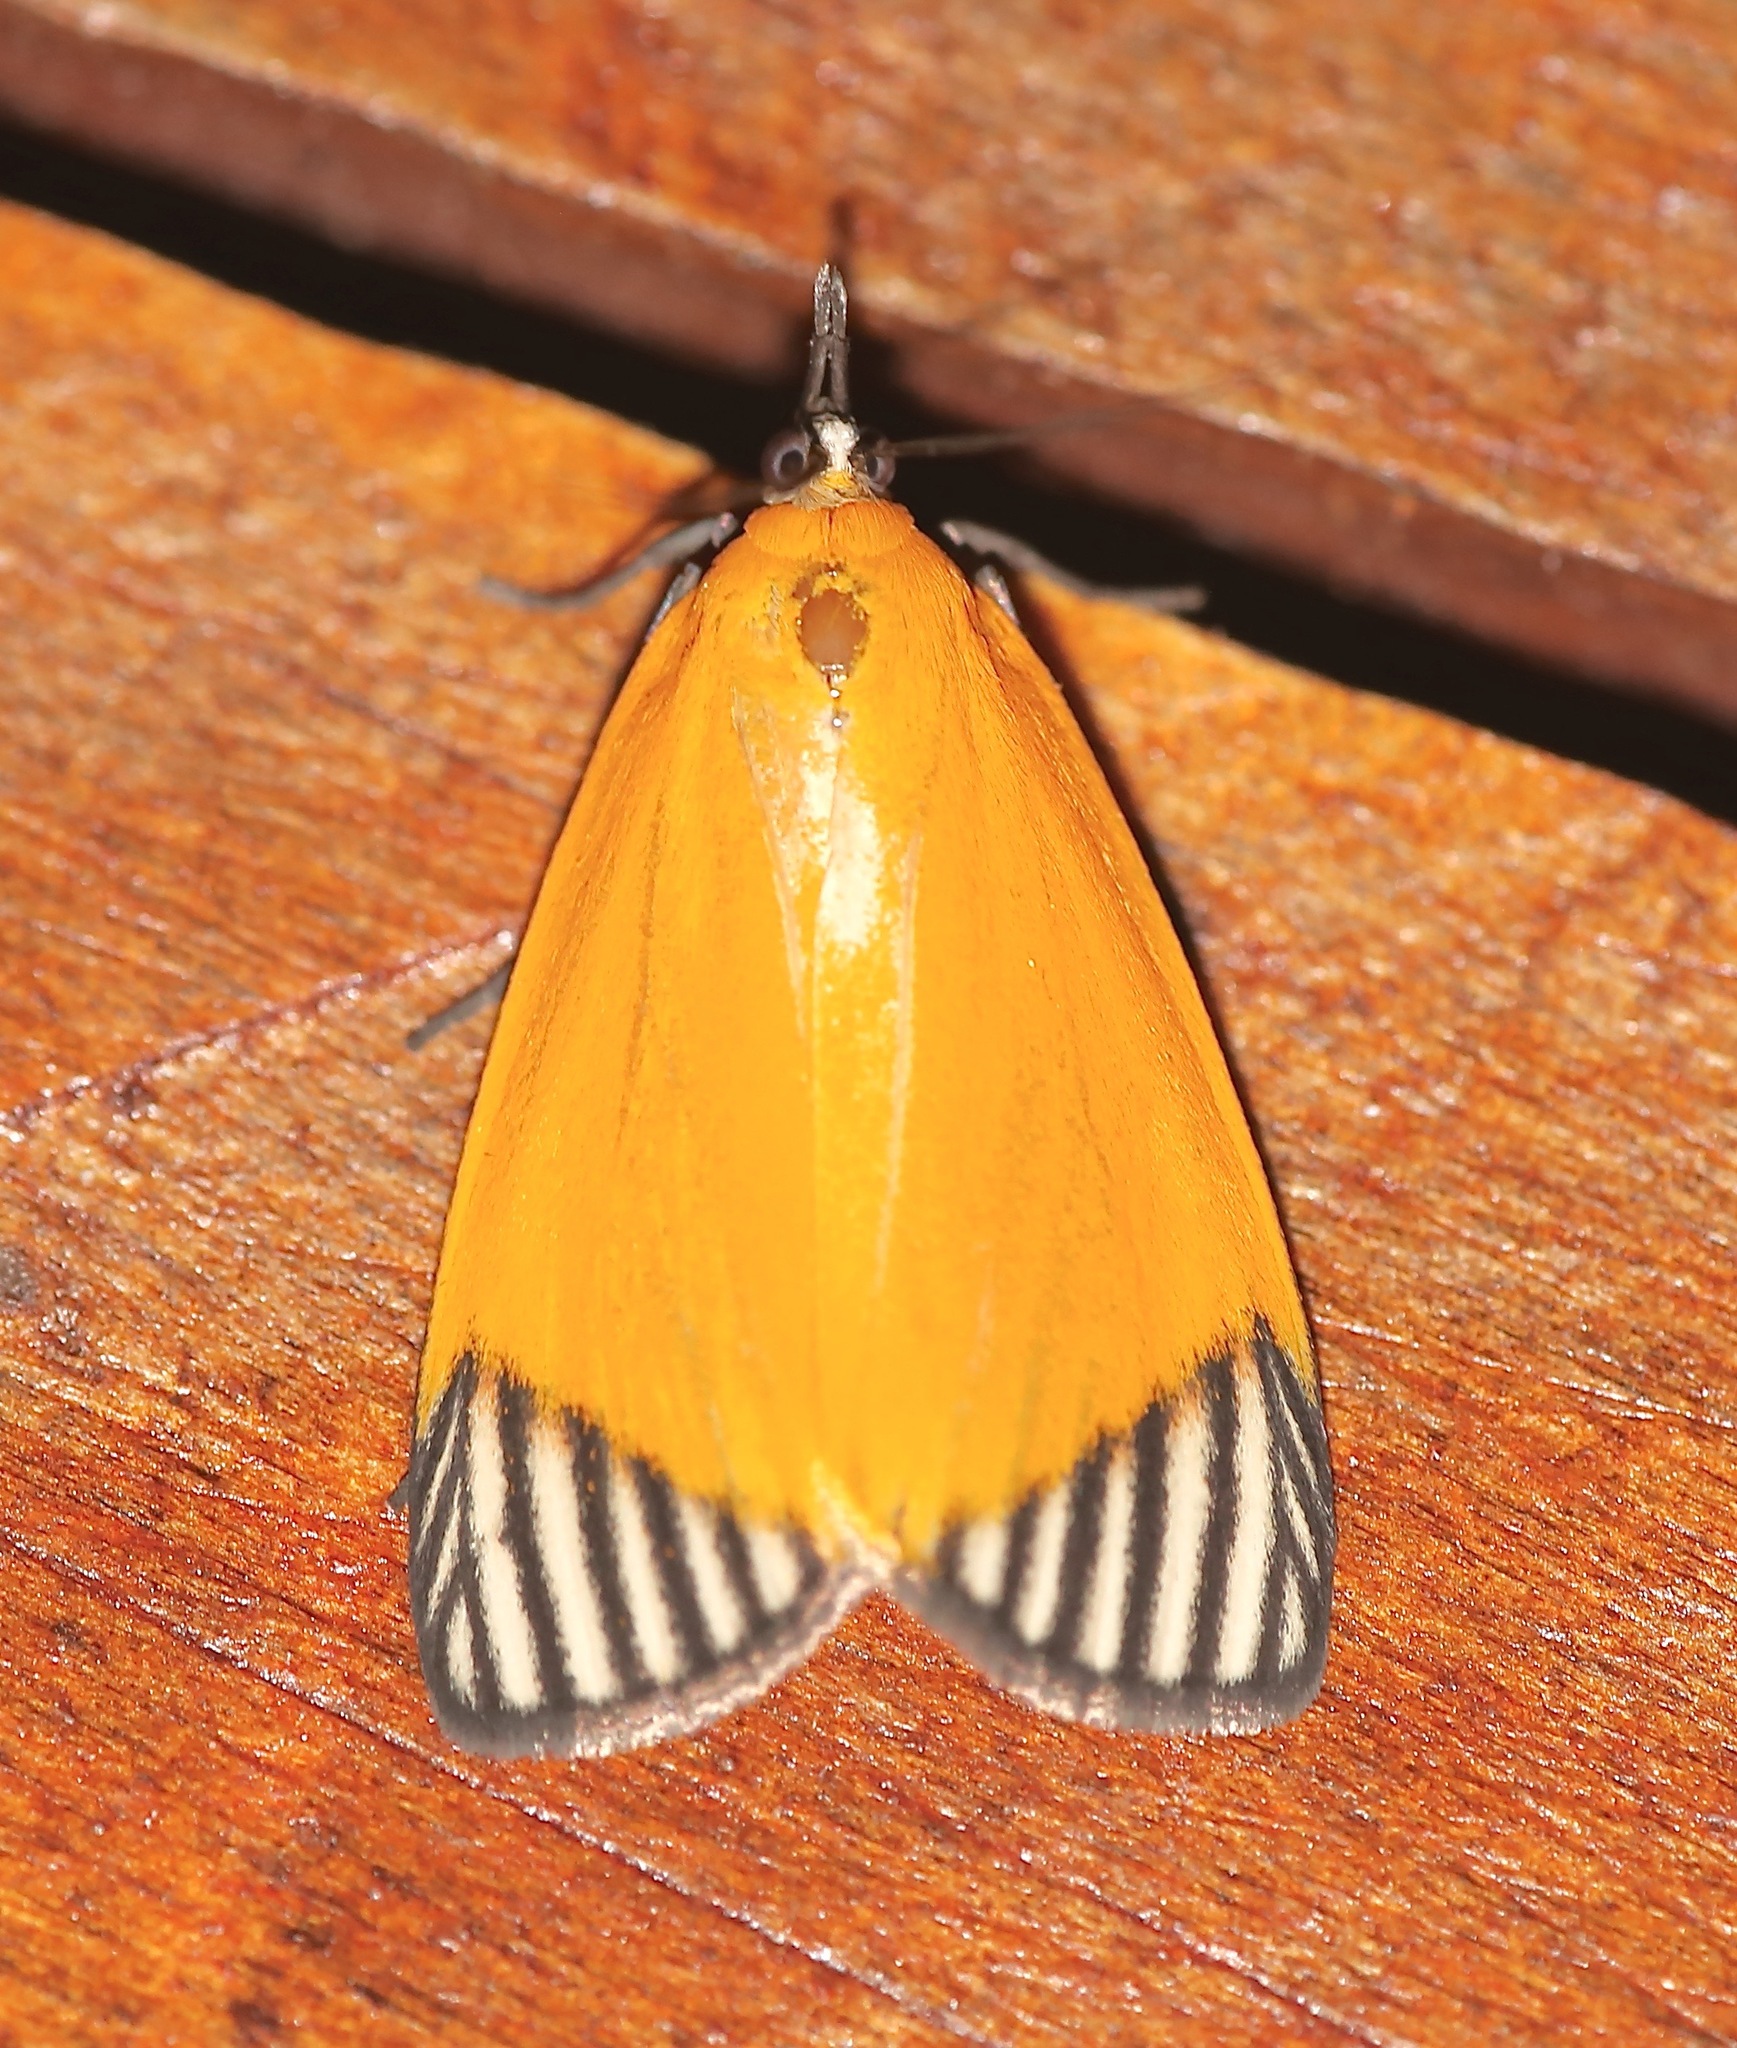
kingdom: Animalia
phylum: Arthropoda
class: Insecta
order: Lepidoptera
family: Pyralidae
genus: Mapeta
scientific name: Mapeta xanthomelas
